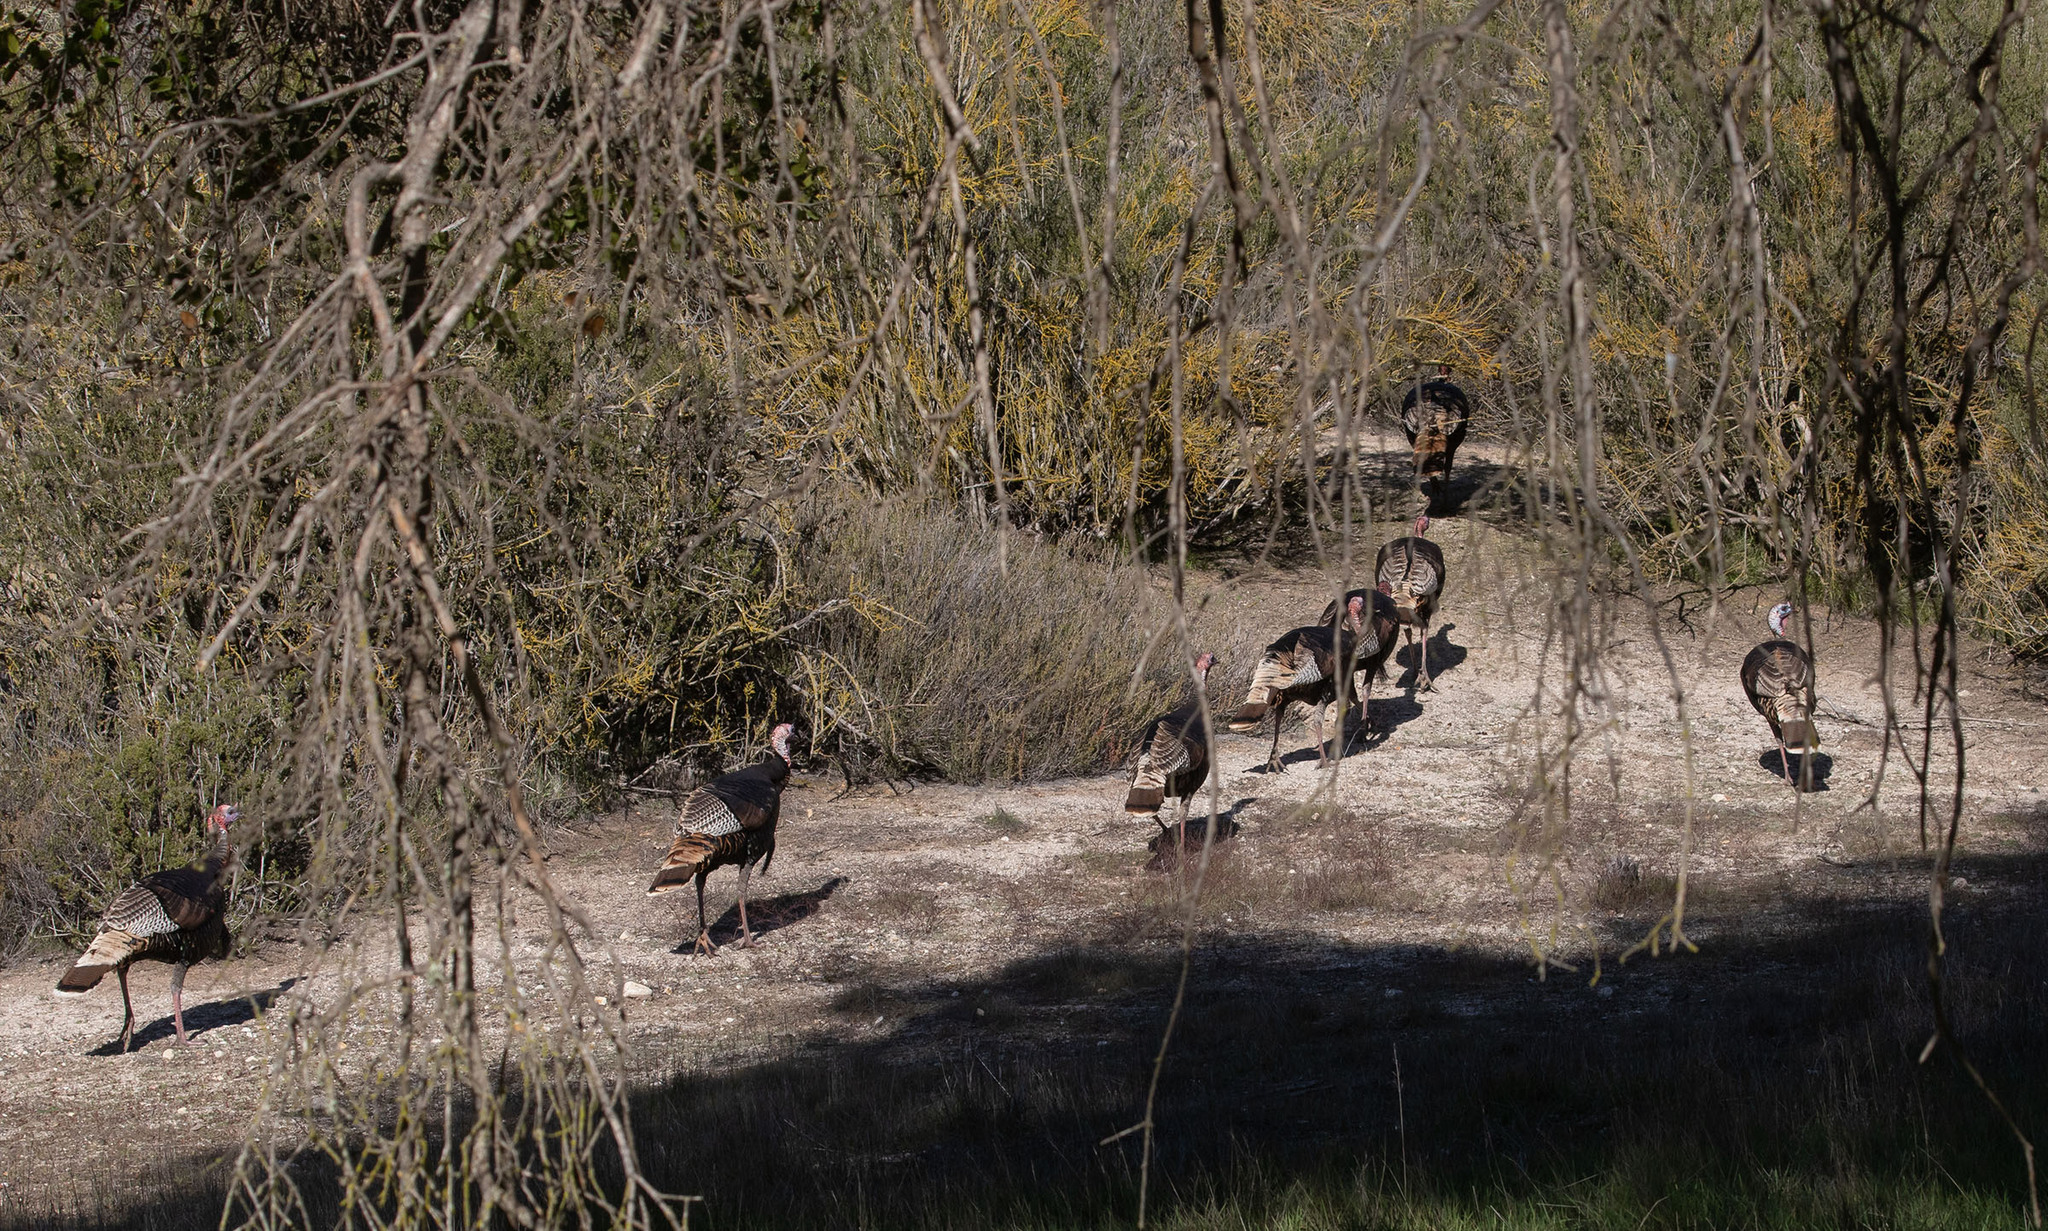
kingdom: Animalia
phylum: Chordata
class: Aves
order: Galliformes
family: Phasianidae
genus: Meleagris
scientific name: Meleagris gallopavo
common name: Wild turkey
